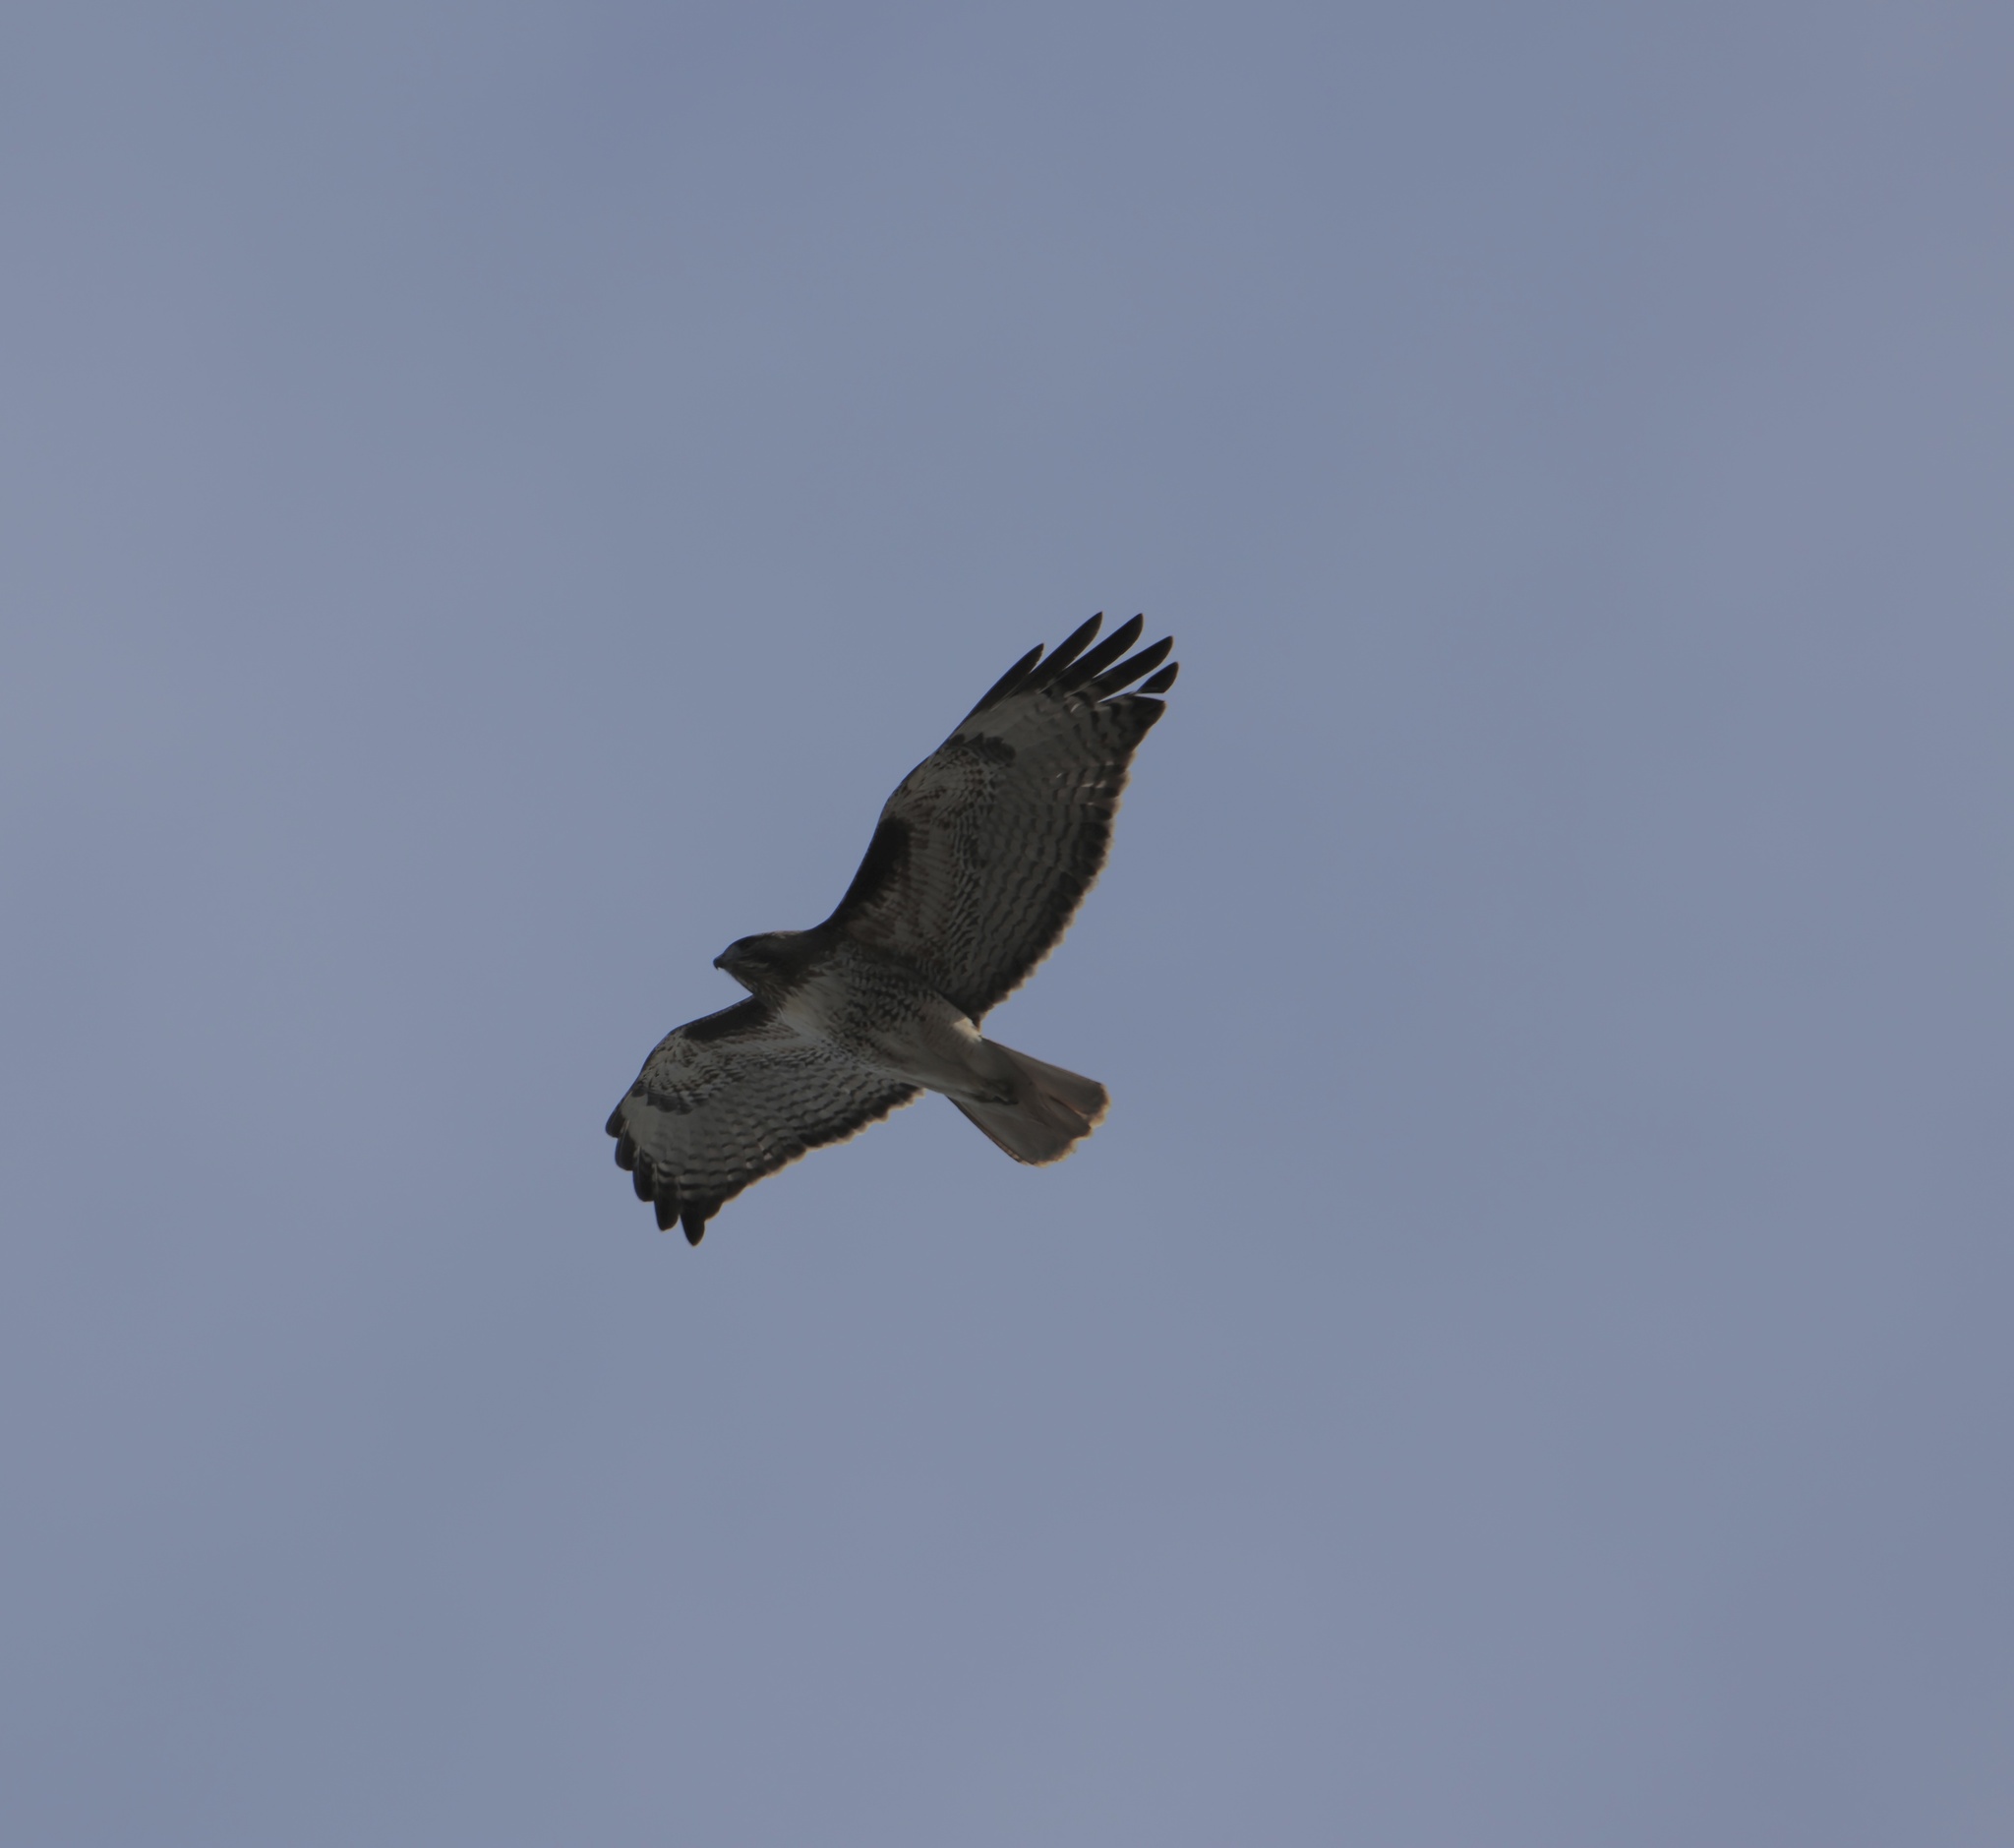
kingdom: Animalia
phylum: Chordata
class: Aves
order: Accipitriformes
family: Accipitridae
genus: Buteo
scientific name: Buteo jamaicensis
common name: Red-tailed hawk
